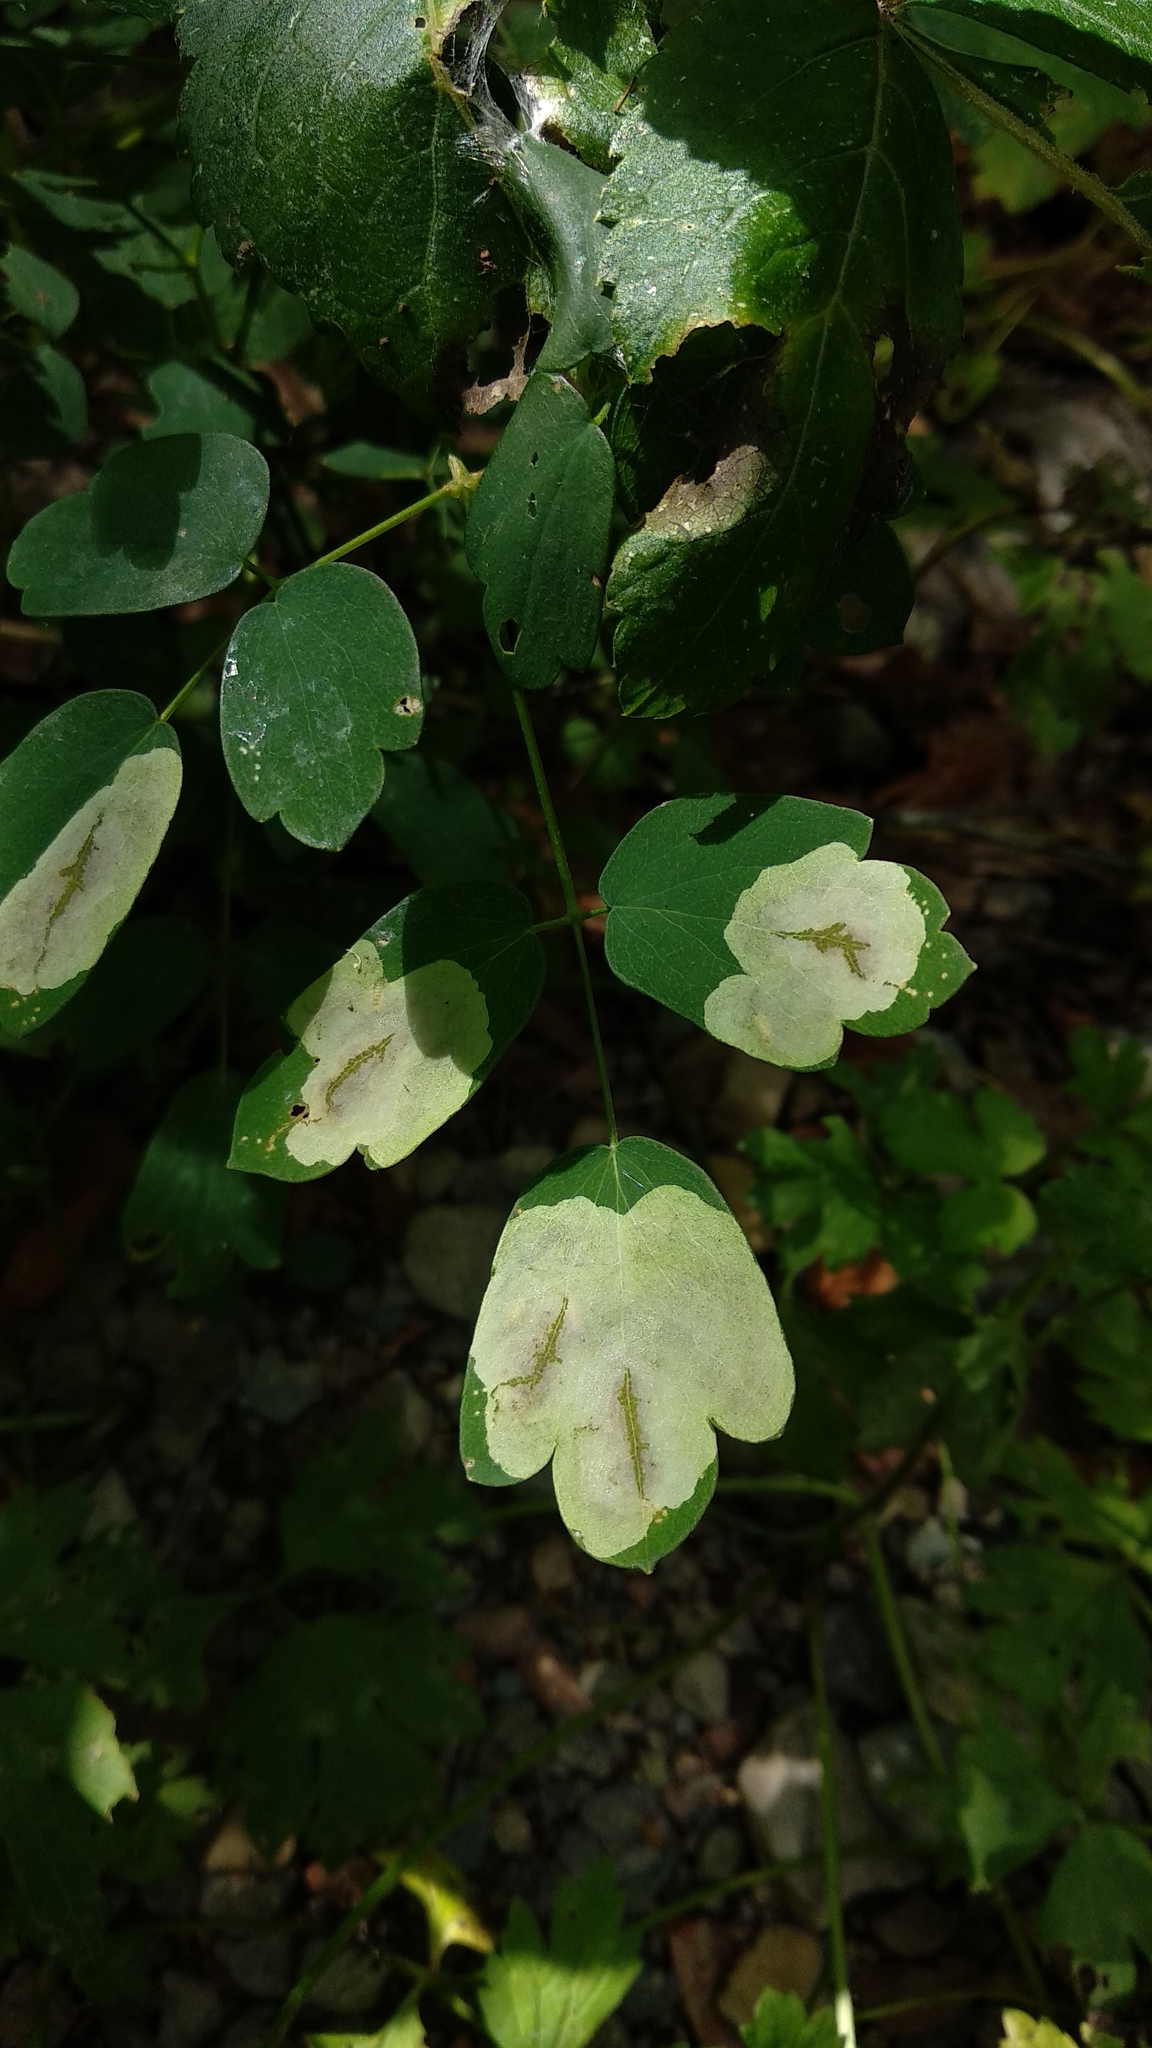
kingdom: Animalia
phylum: Arthropoda
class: Insecta
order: Diptera
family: Agromyzidae
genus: Phytomyza
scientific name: Phytomyza plumiseta
